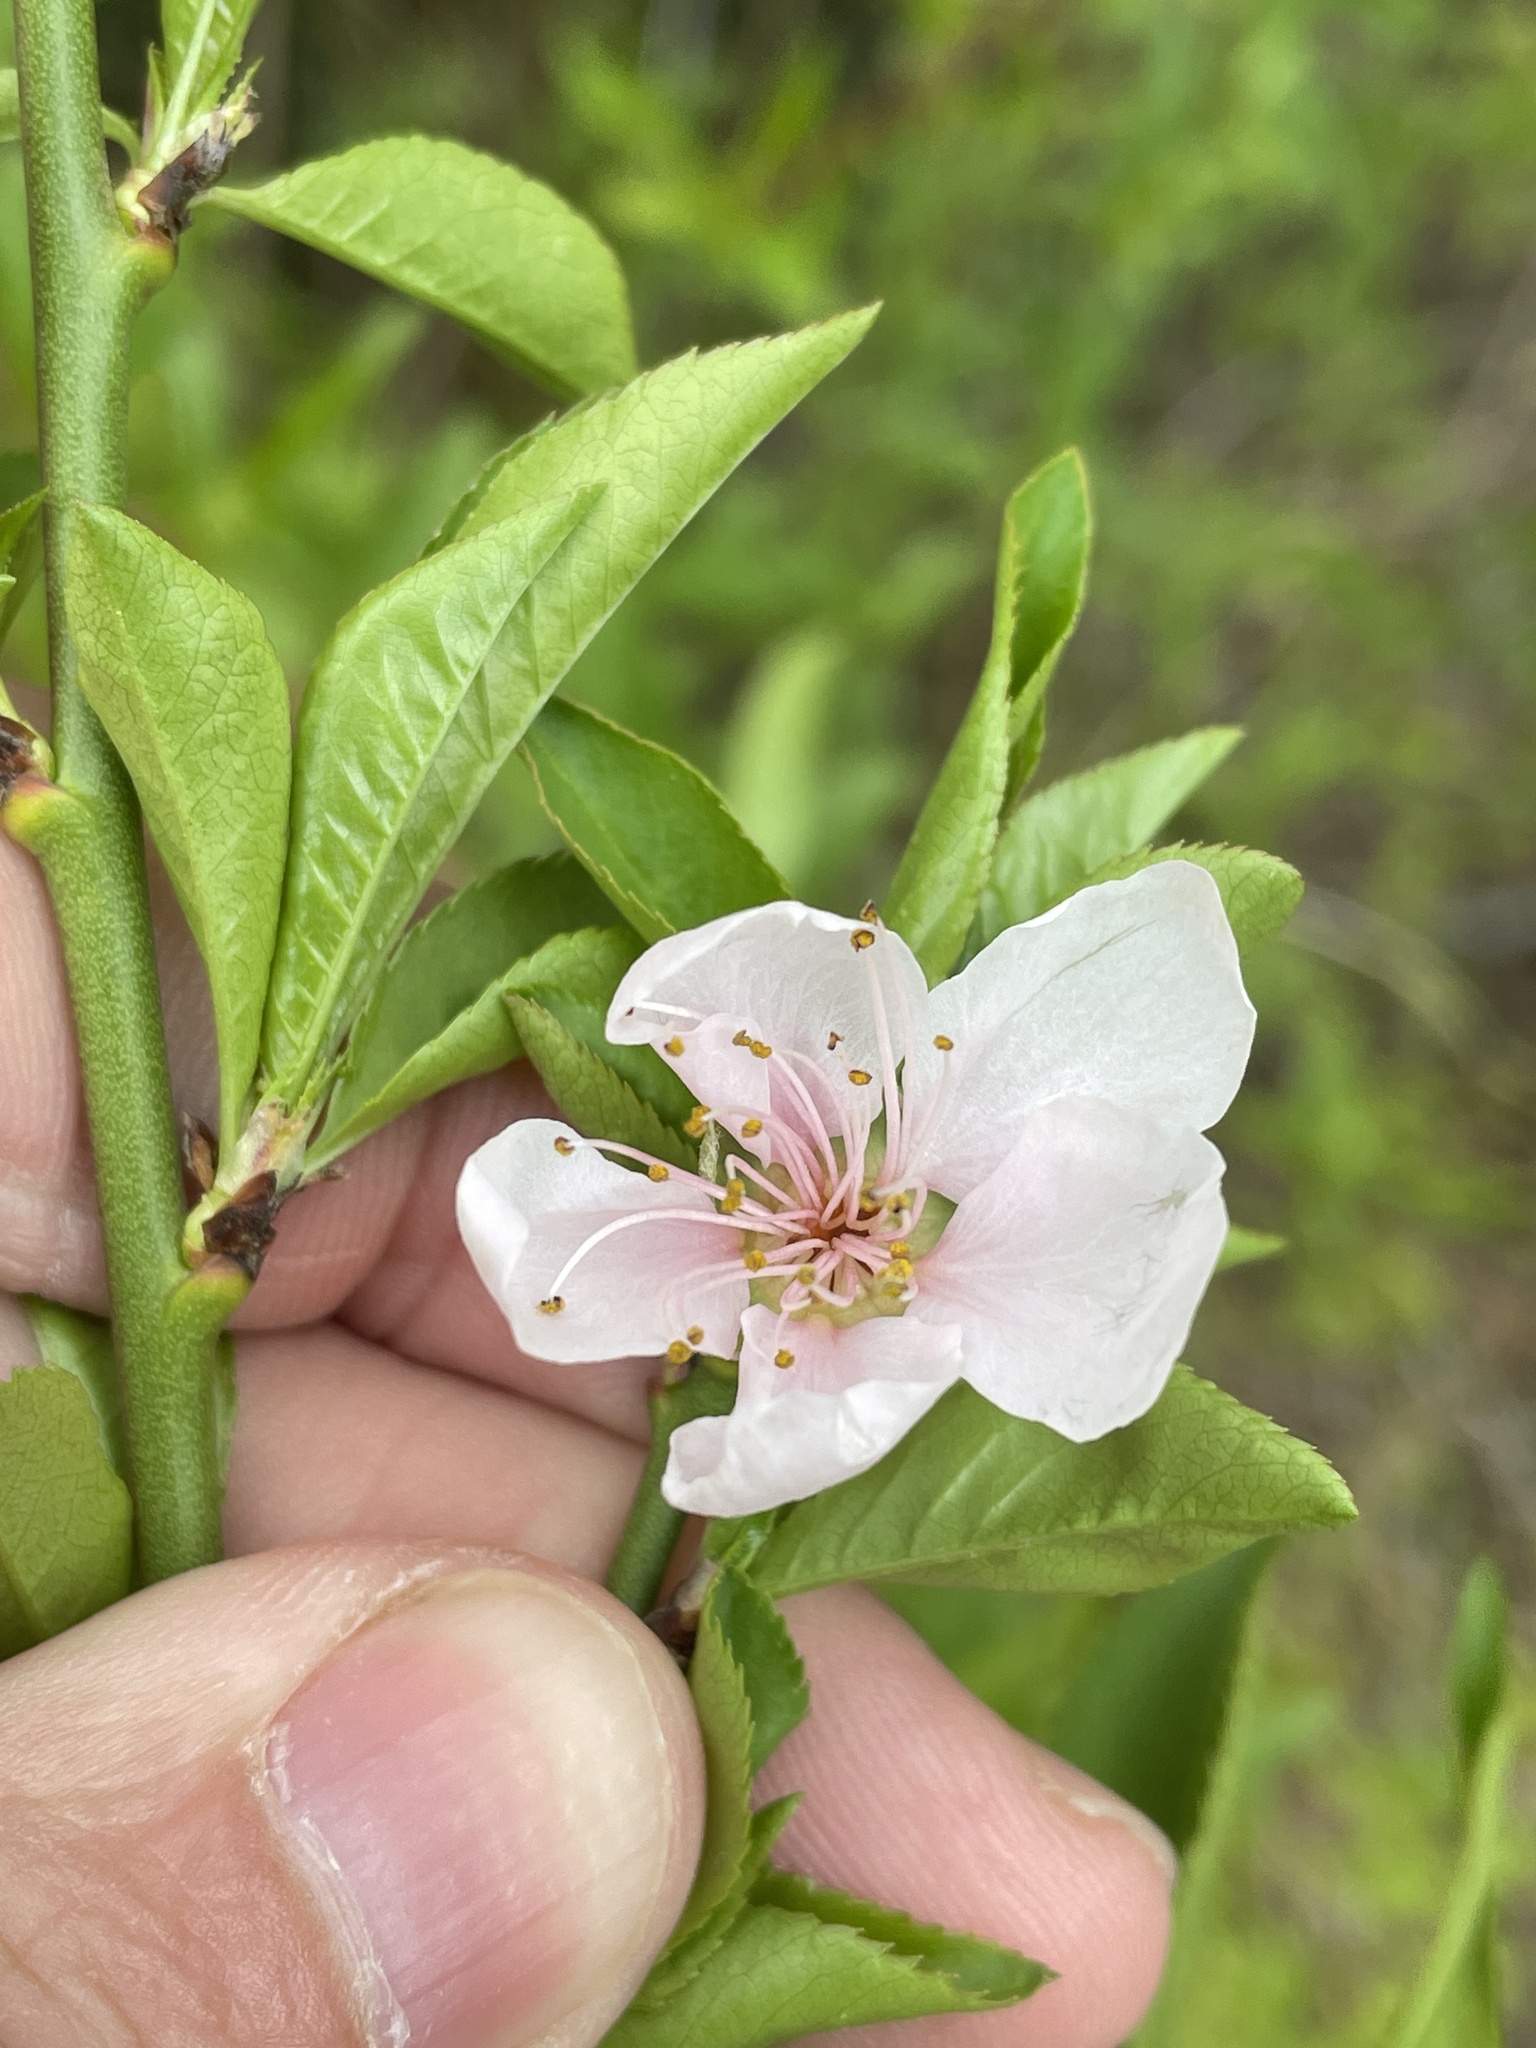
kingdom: Plantae
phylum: Tracheophyta
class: Magnoliopsida
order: Rosales
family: Rosaceae
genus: Prunus
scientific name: Prunus persica
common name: Peach
